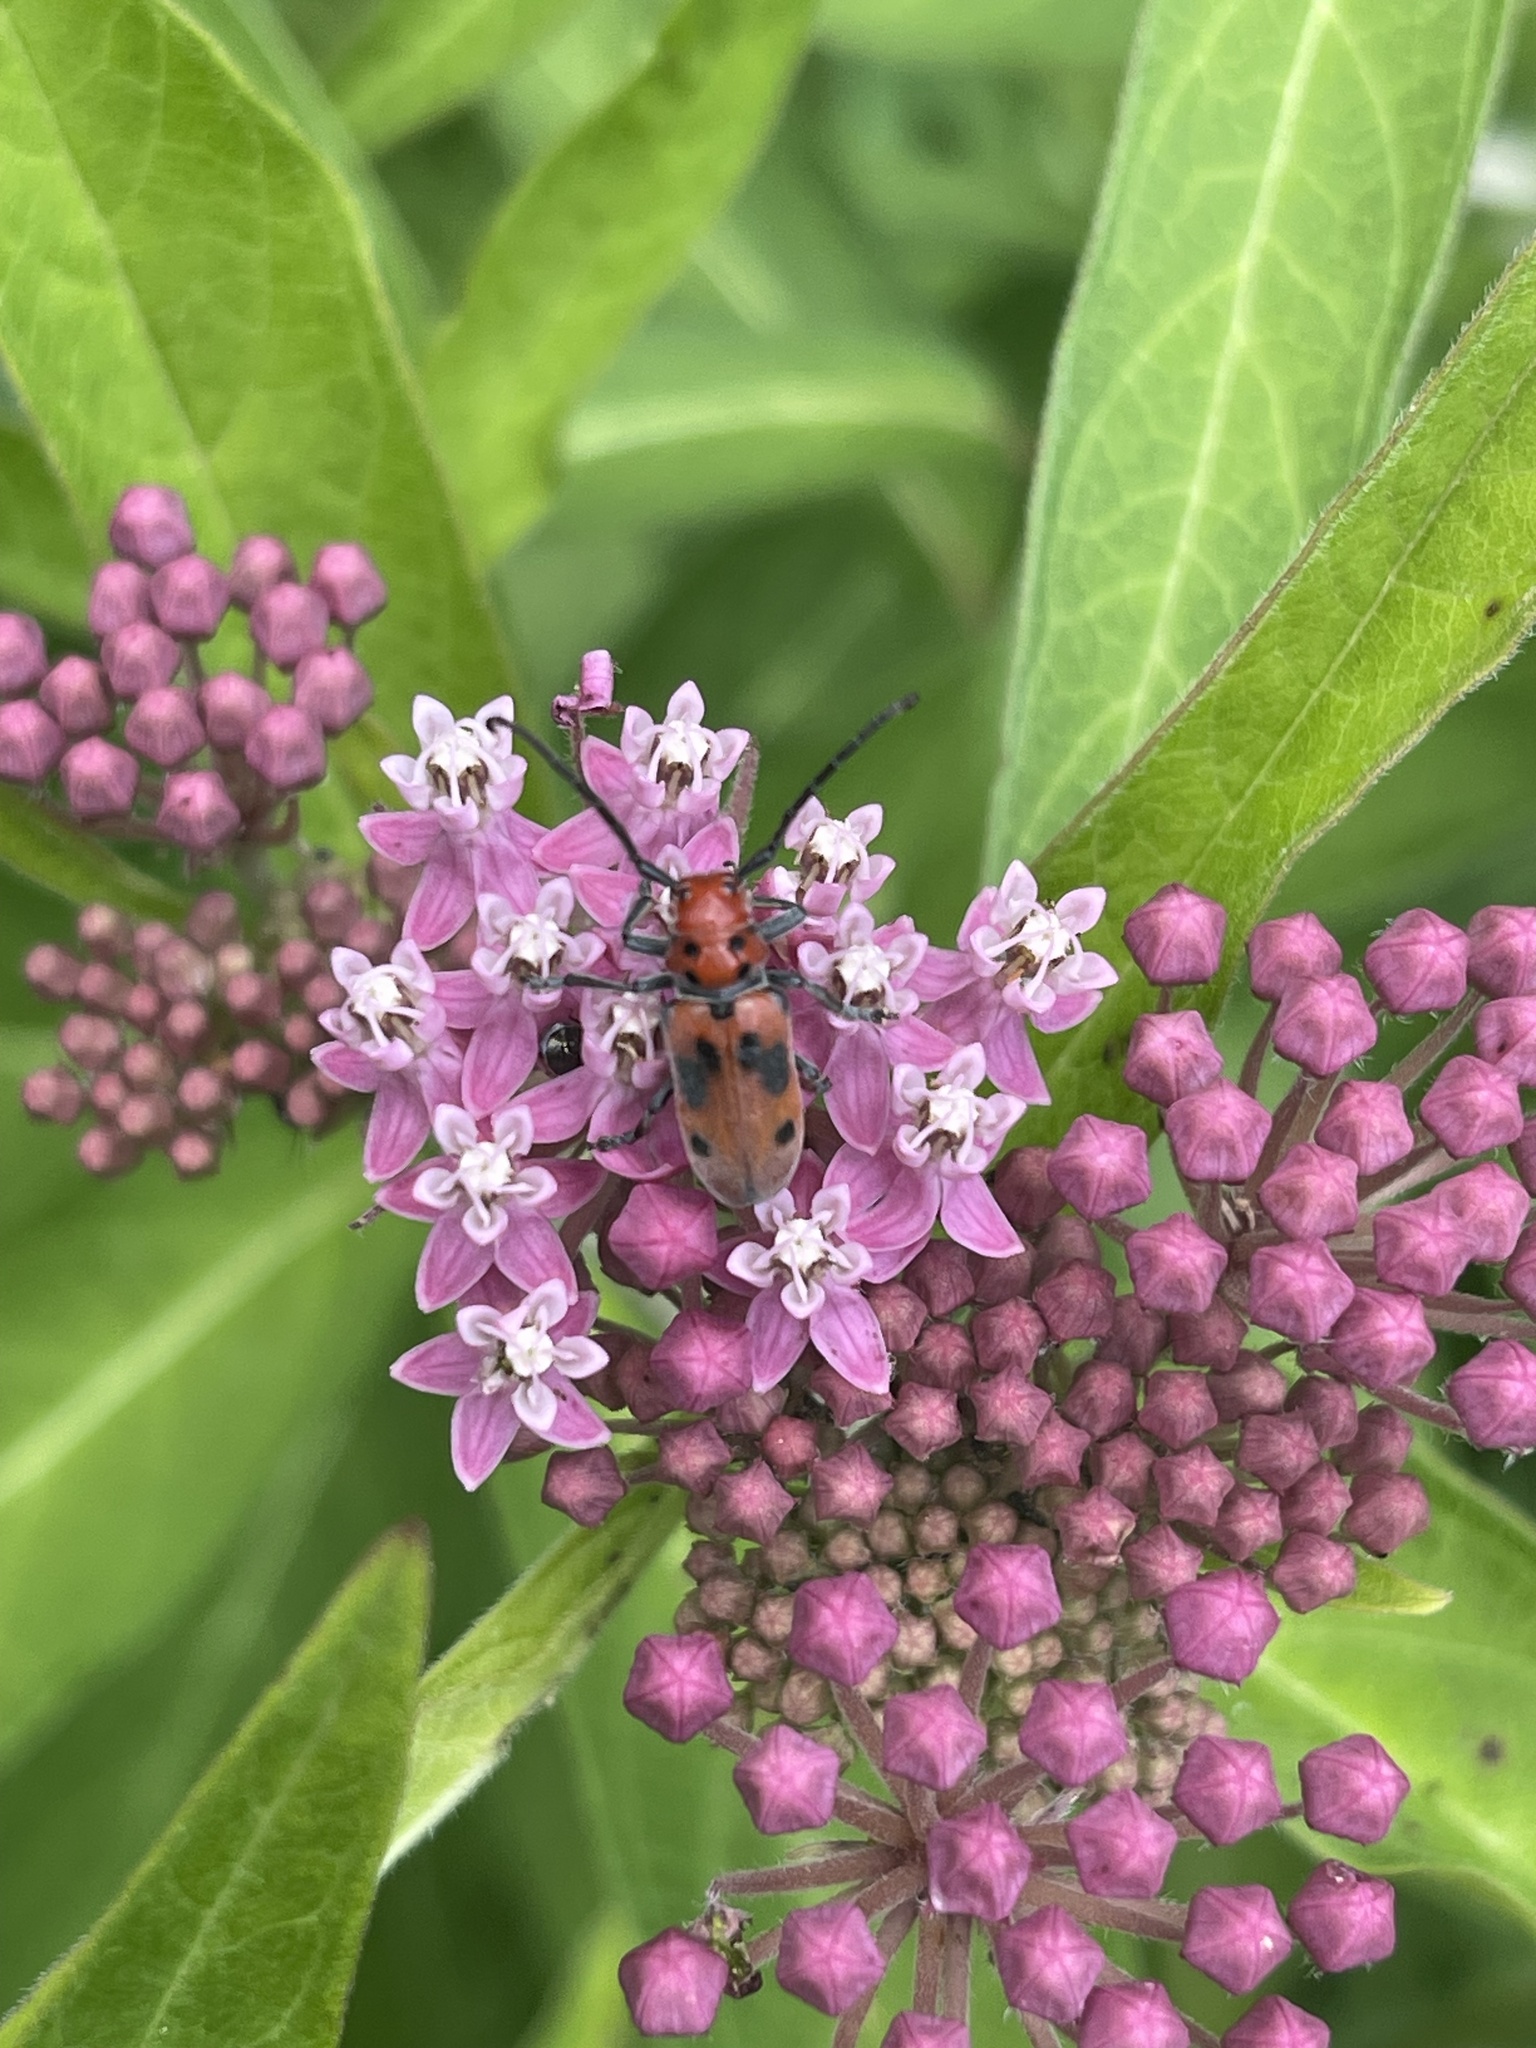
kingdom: Animalia
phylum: Arthropoda
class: Insecta
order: Coleoptera
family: Cerambycidae
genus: Tetraopes
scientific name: Tetraopes tetrophthalmus
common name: Red milkweed beetle
